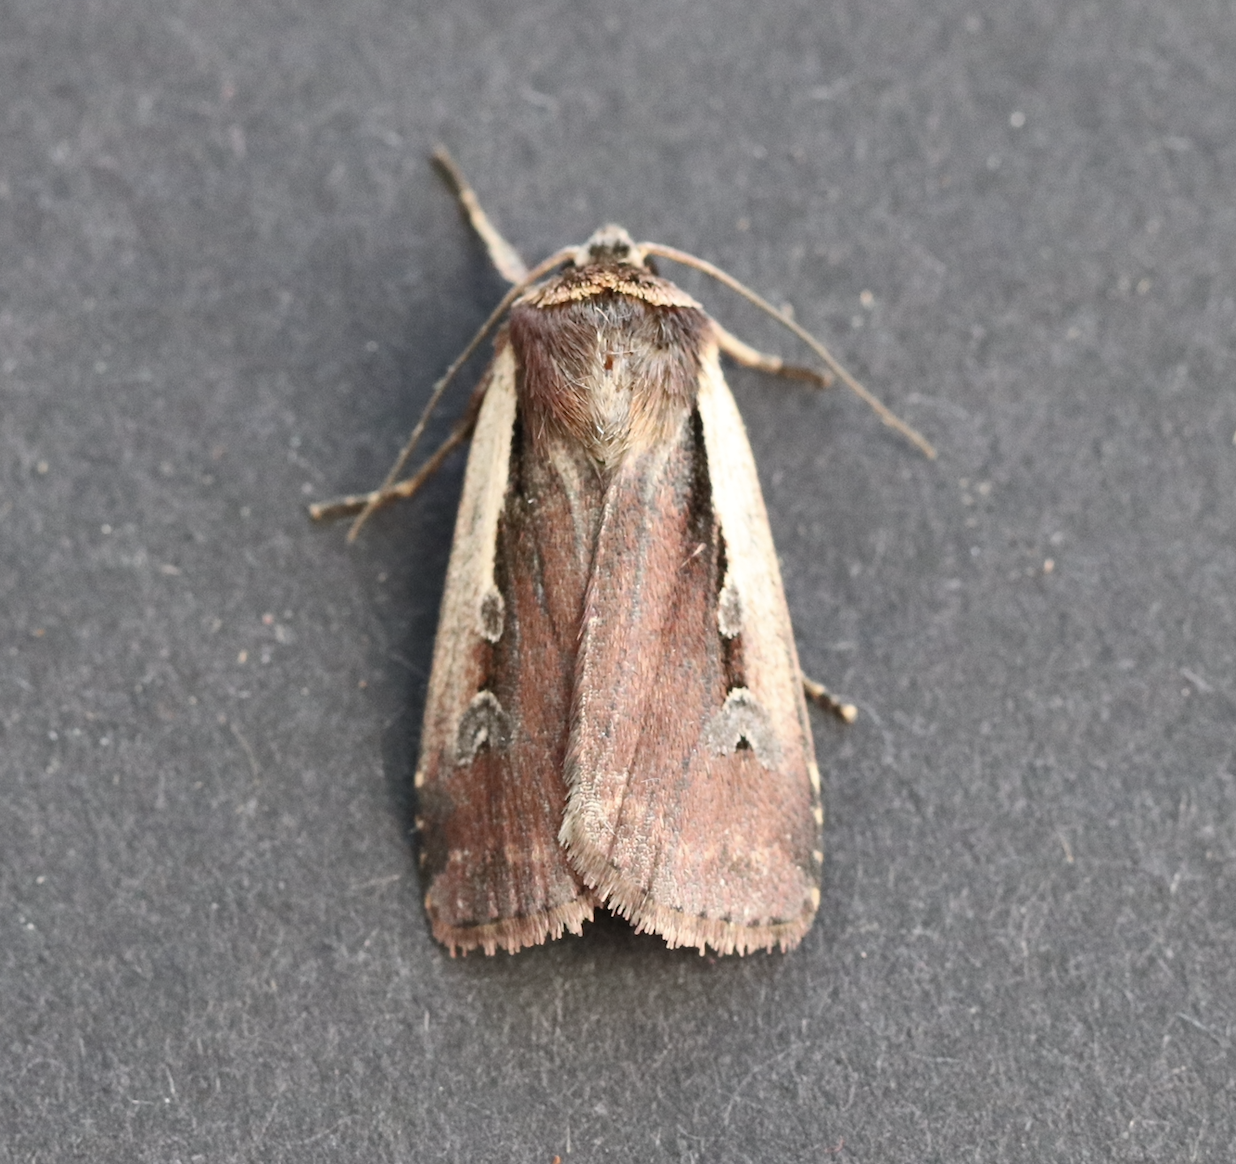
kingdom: Animalia
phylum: Arthropoda
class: Insecta
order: Lepidoptera
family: Noctuidae
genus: Ochropleura
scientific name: Ochropleura plecta
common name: Flame shoulder
